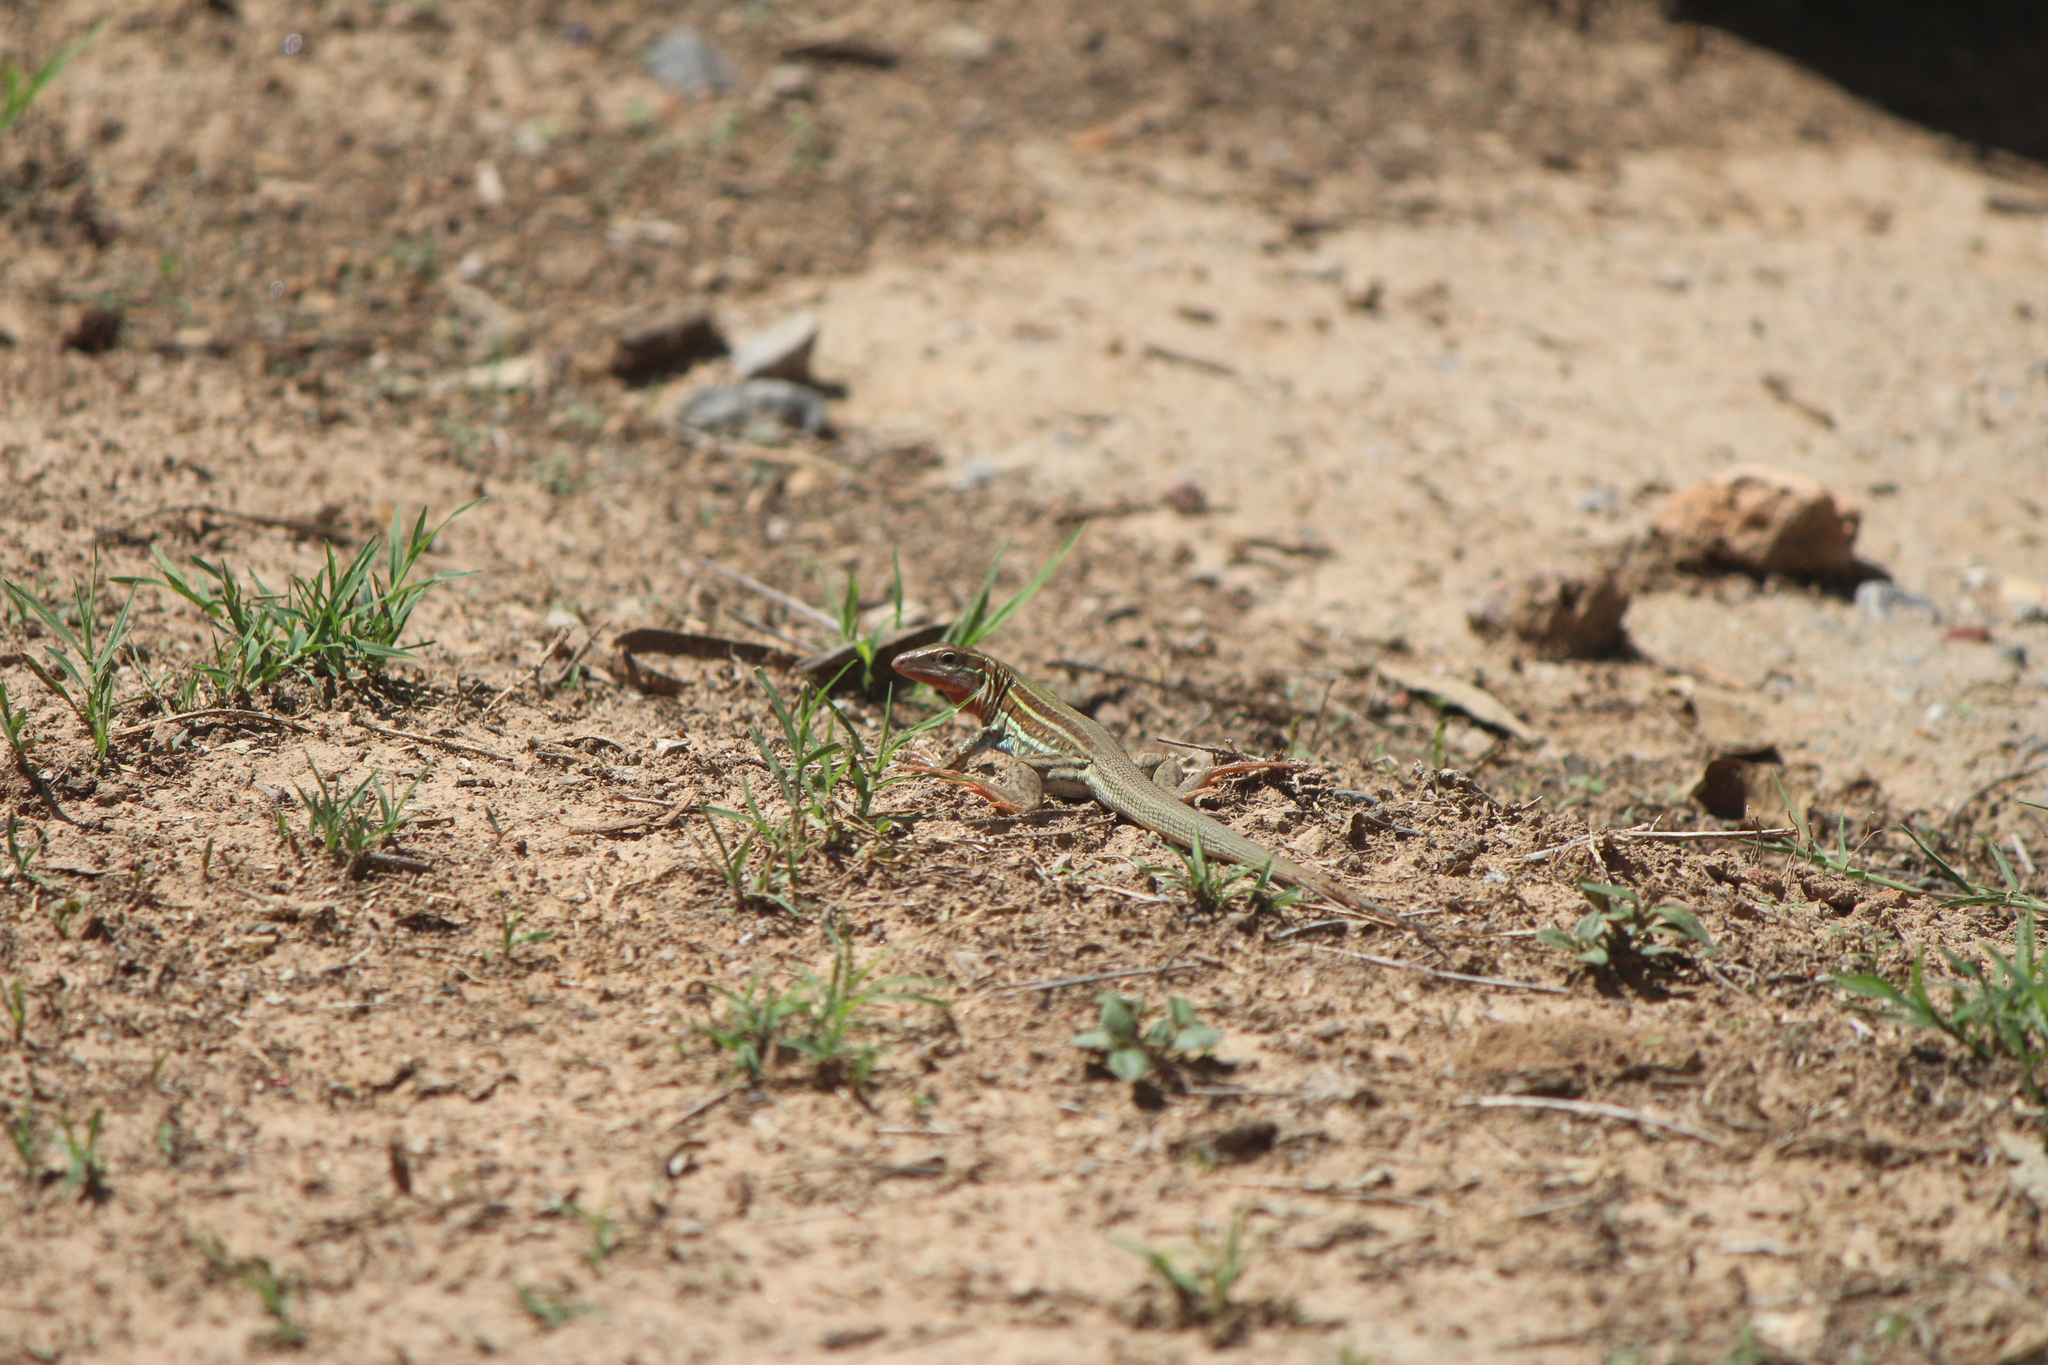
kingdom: Animalia
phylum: Chordata
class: Squamata
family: Teiidae
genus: Aspidoscelis
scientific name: Aspidoscelis gularis
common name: Eastern spotted whiptail
